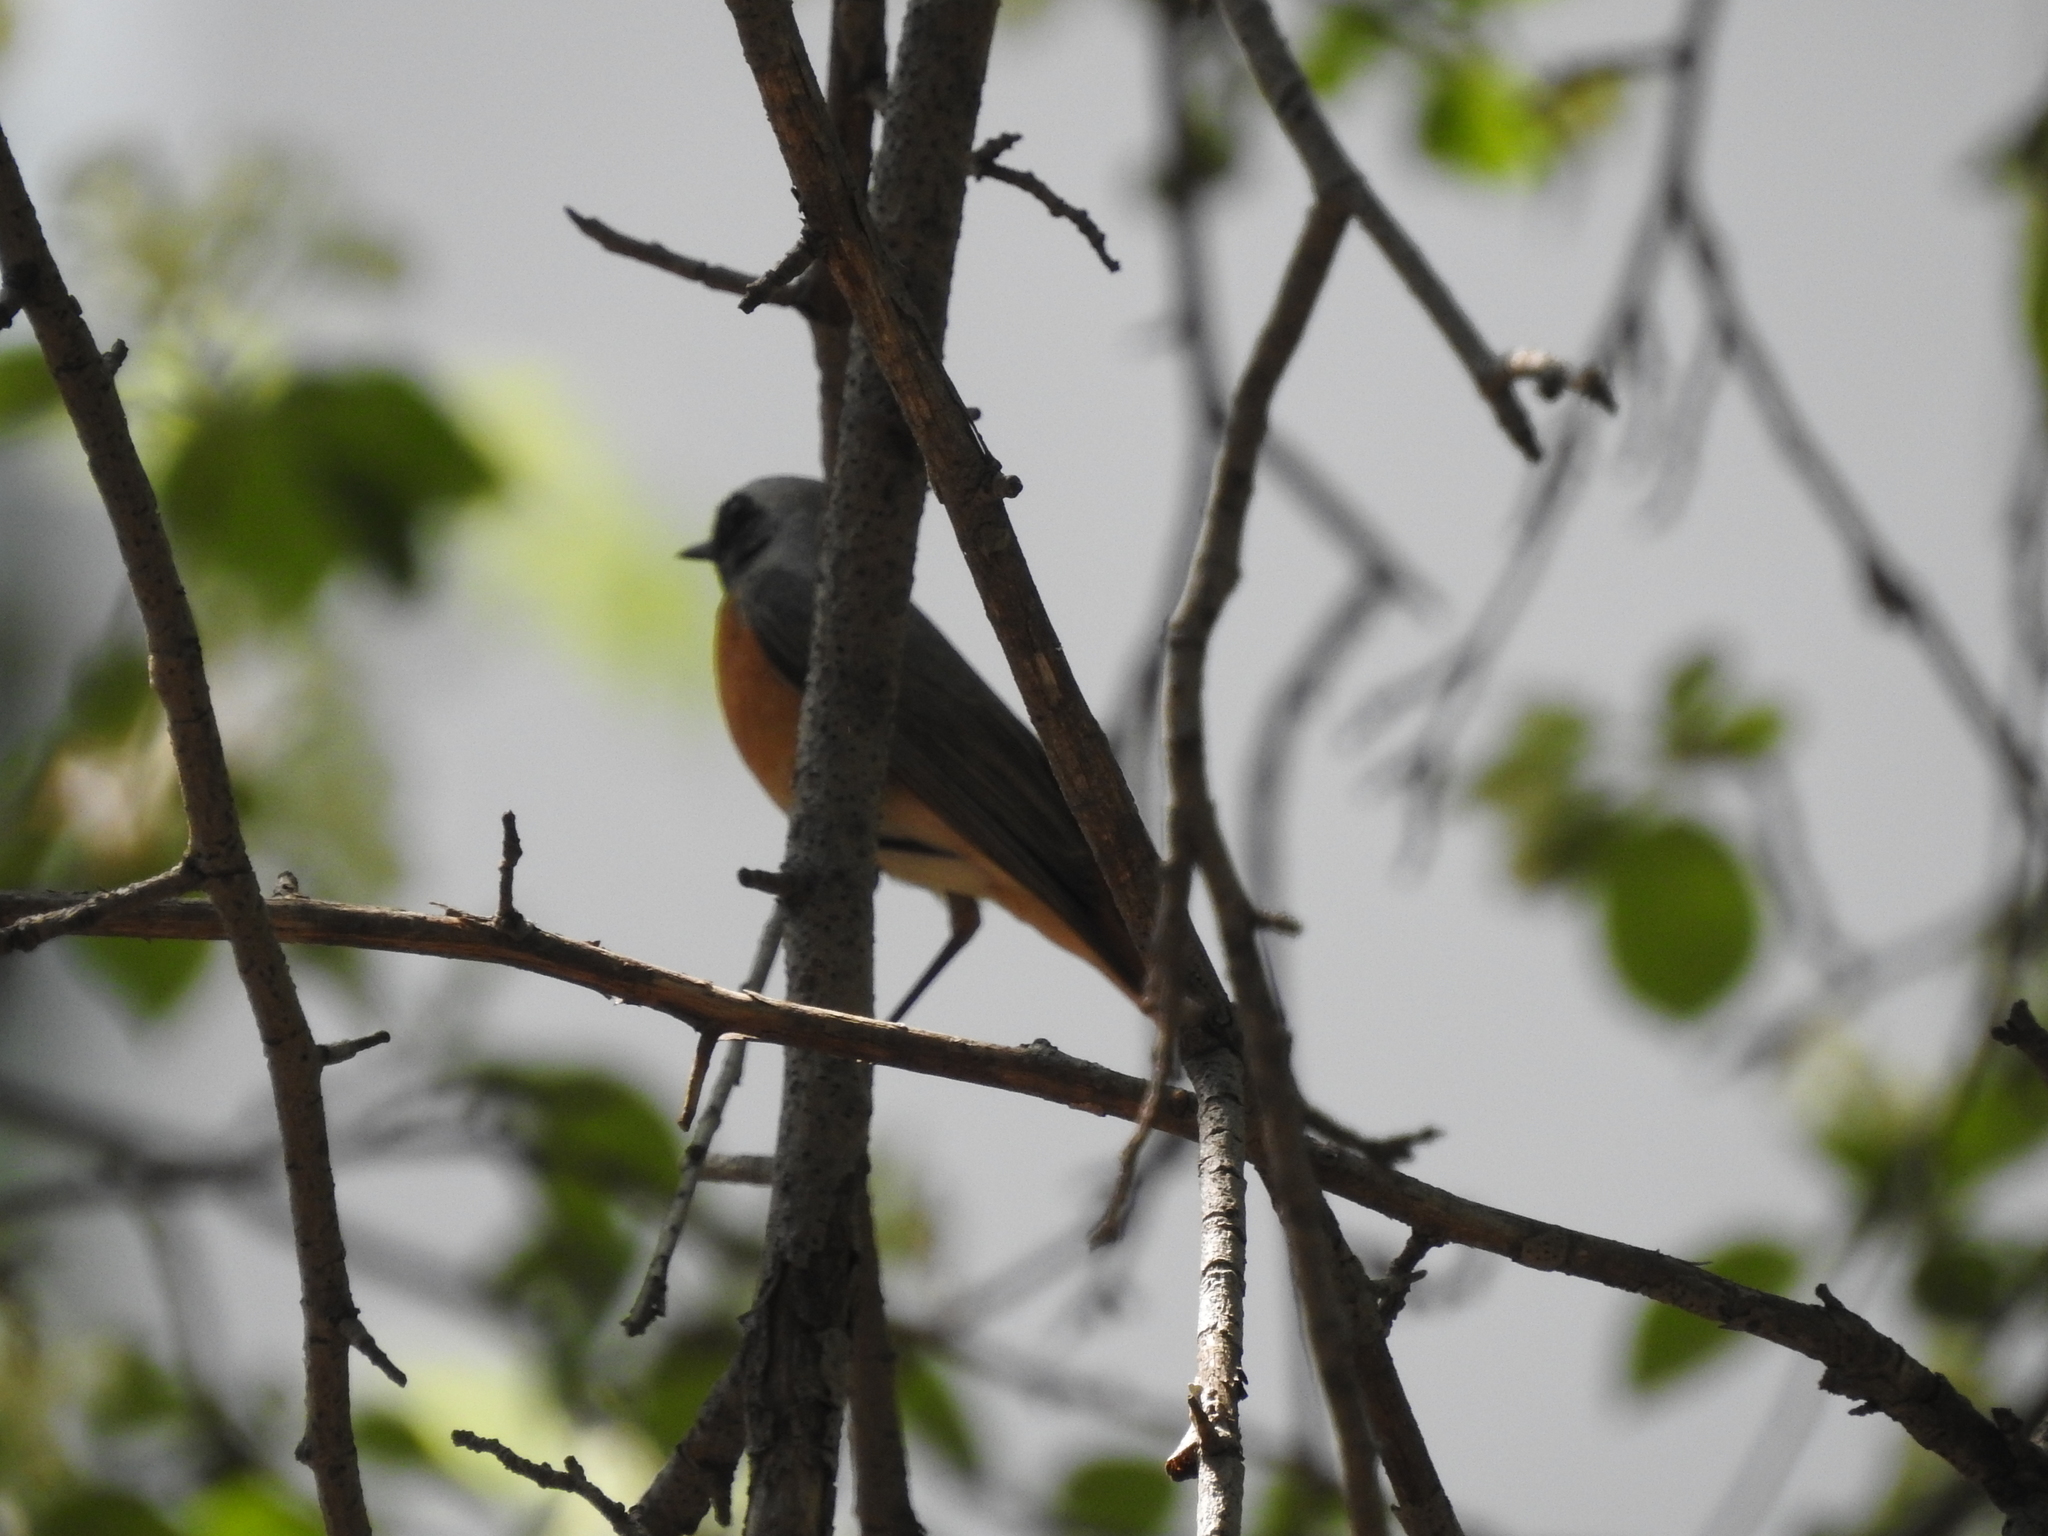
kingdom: Animalia
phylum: Chordata
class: Aves
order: Passeriformes
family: Muscicapidae
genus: Phoenicurus
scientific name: Phoenicurus phoenicurus
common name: Common redstart
